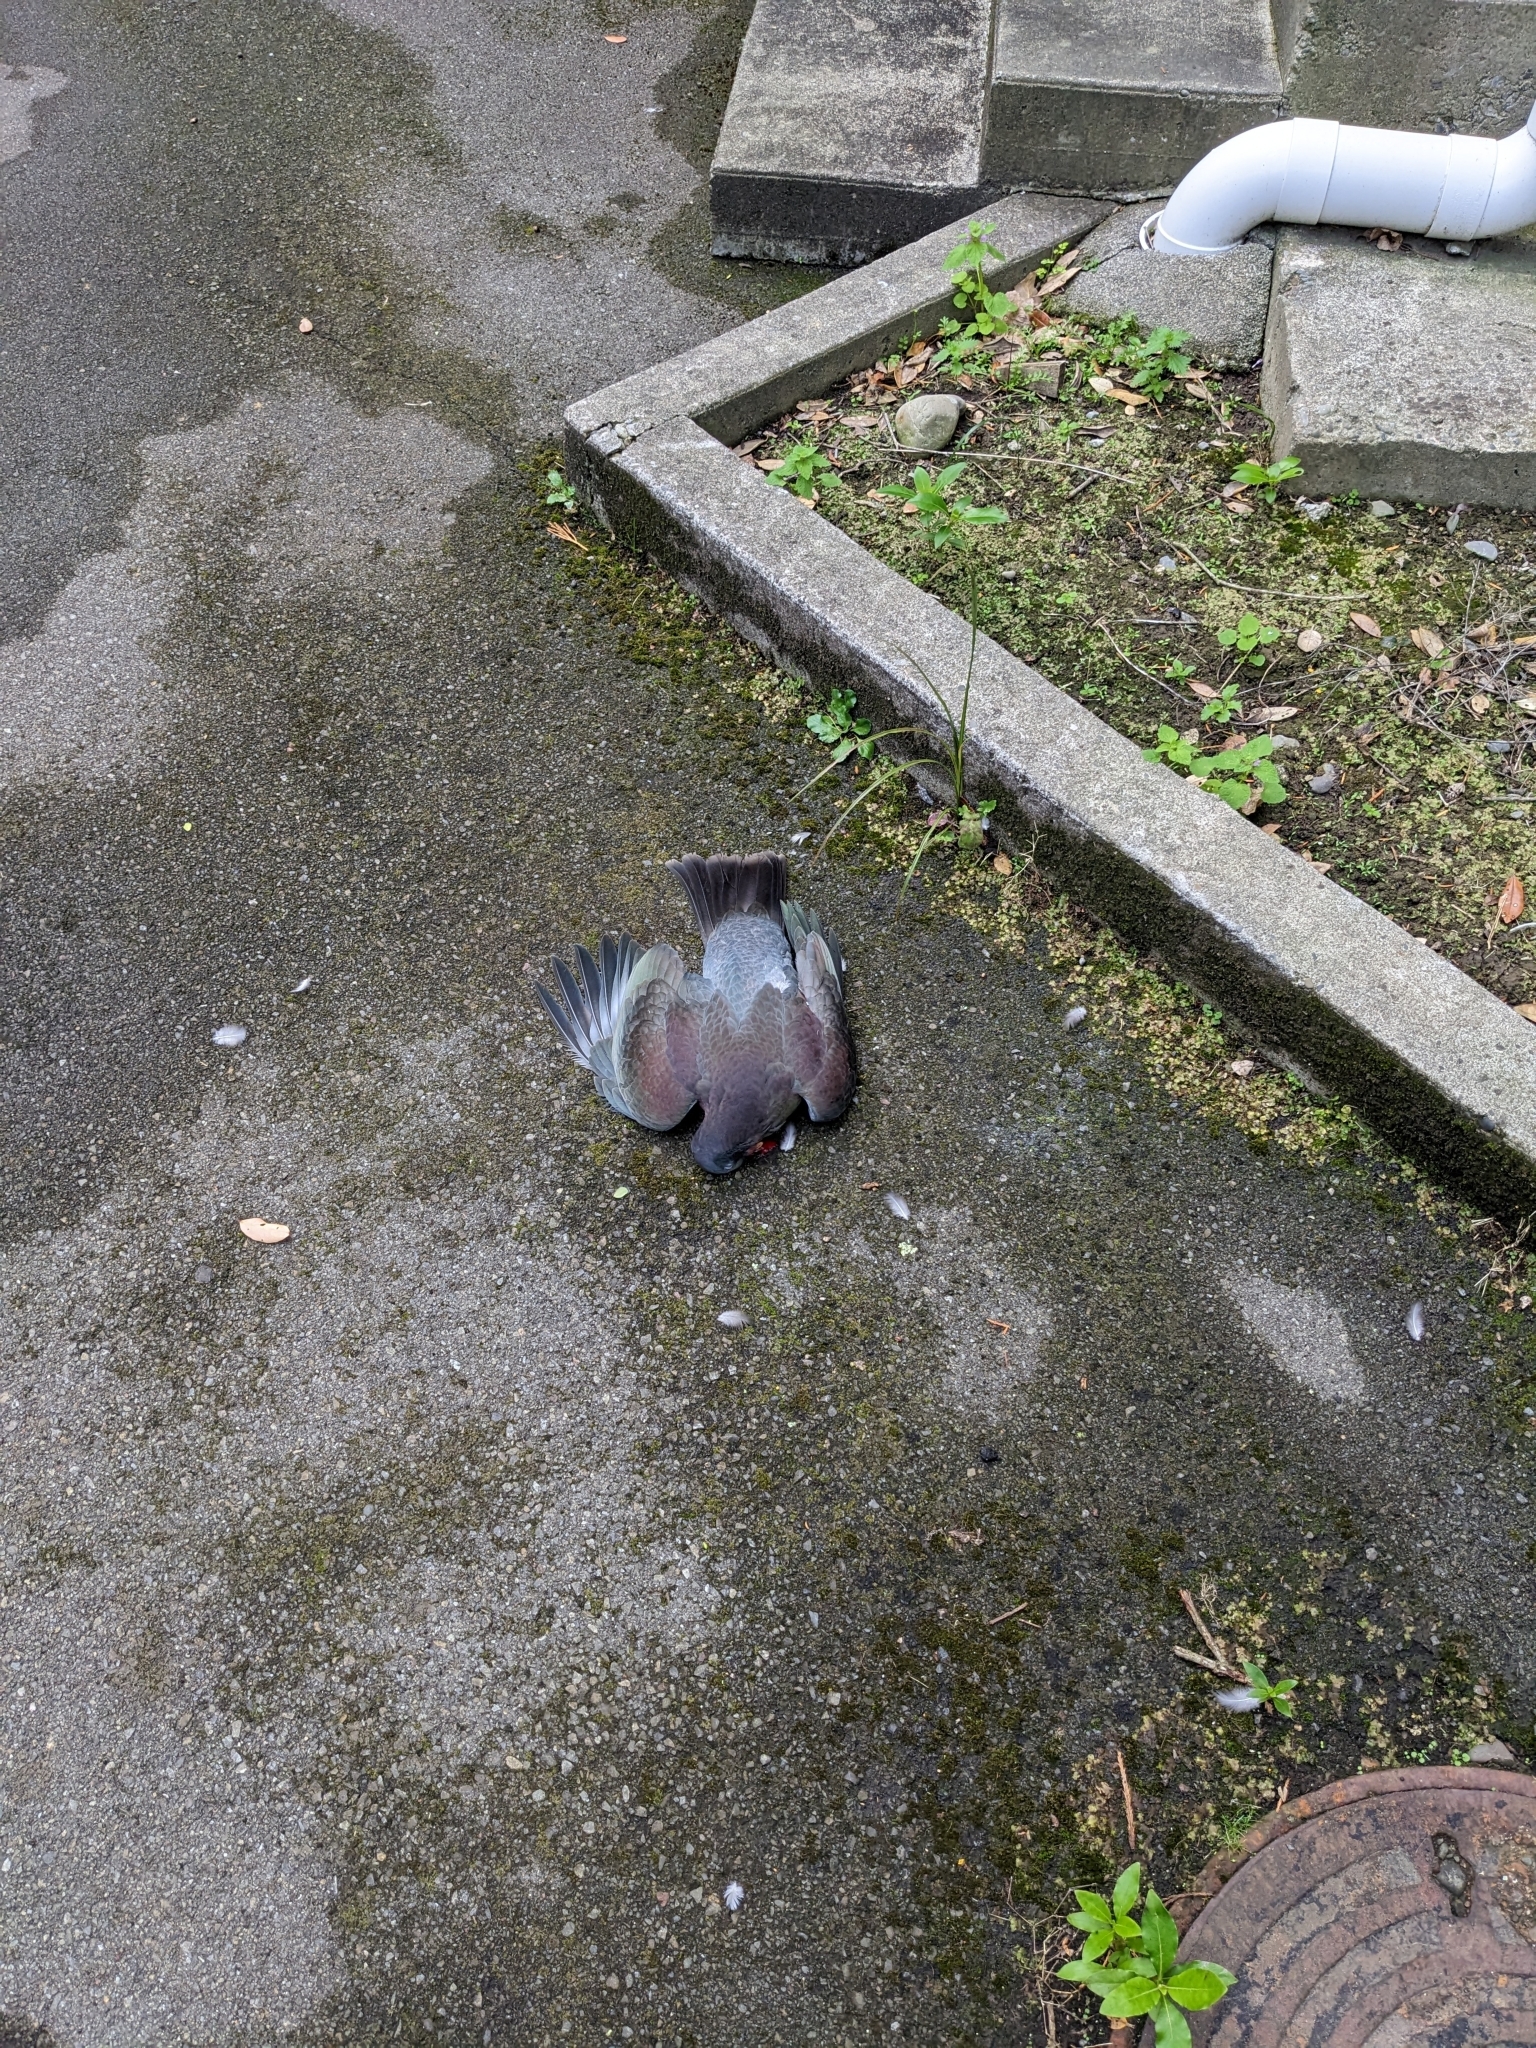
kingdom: Animalia
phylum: Chordata
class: Aves
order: Columbiformes
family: Columbidae
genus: Hemiphaga
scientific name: Hemiphaga novaeseelandiae
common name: New zealand pigeon
